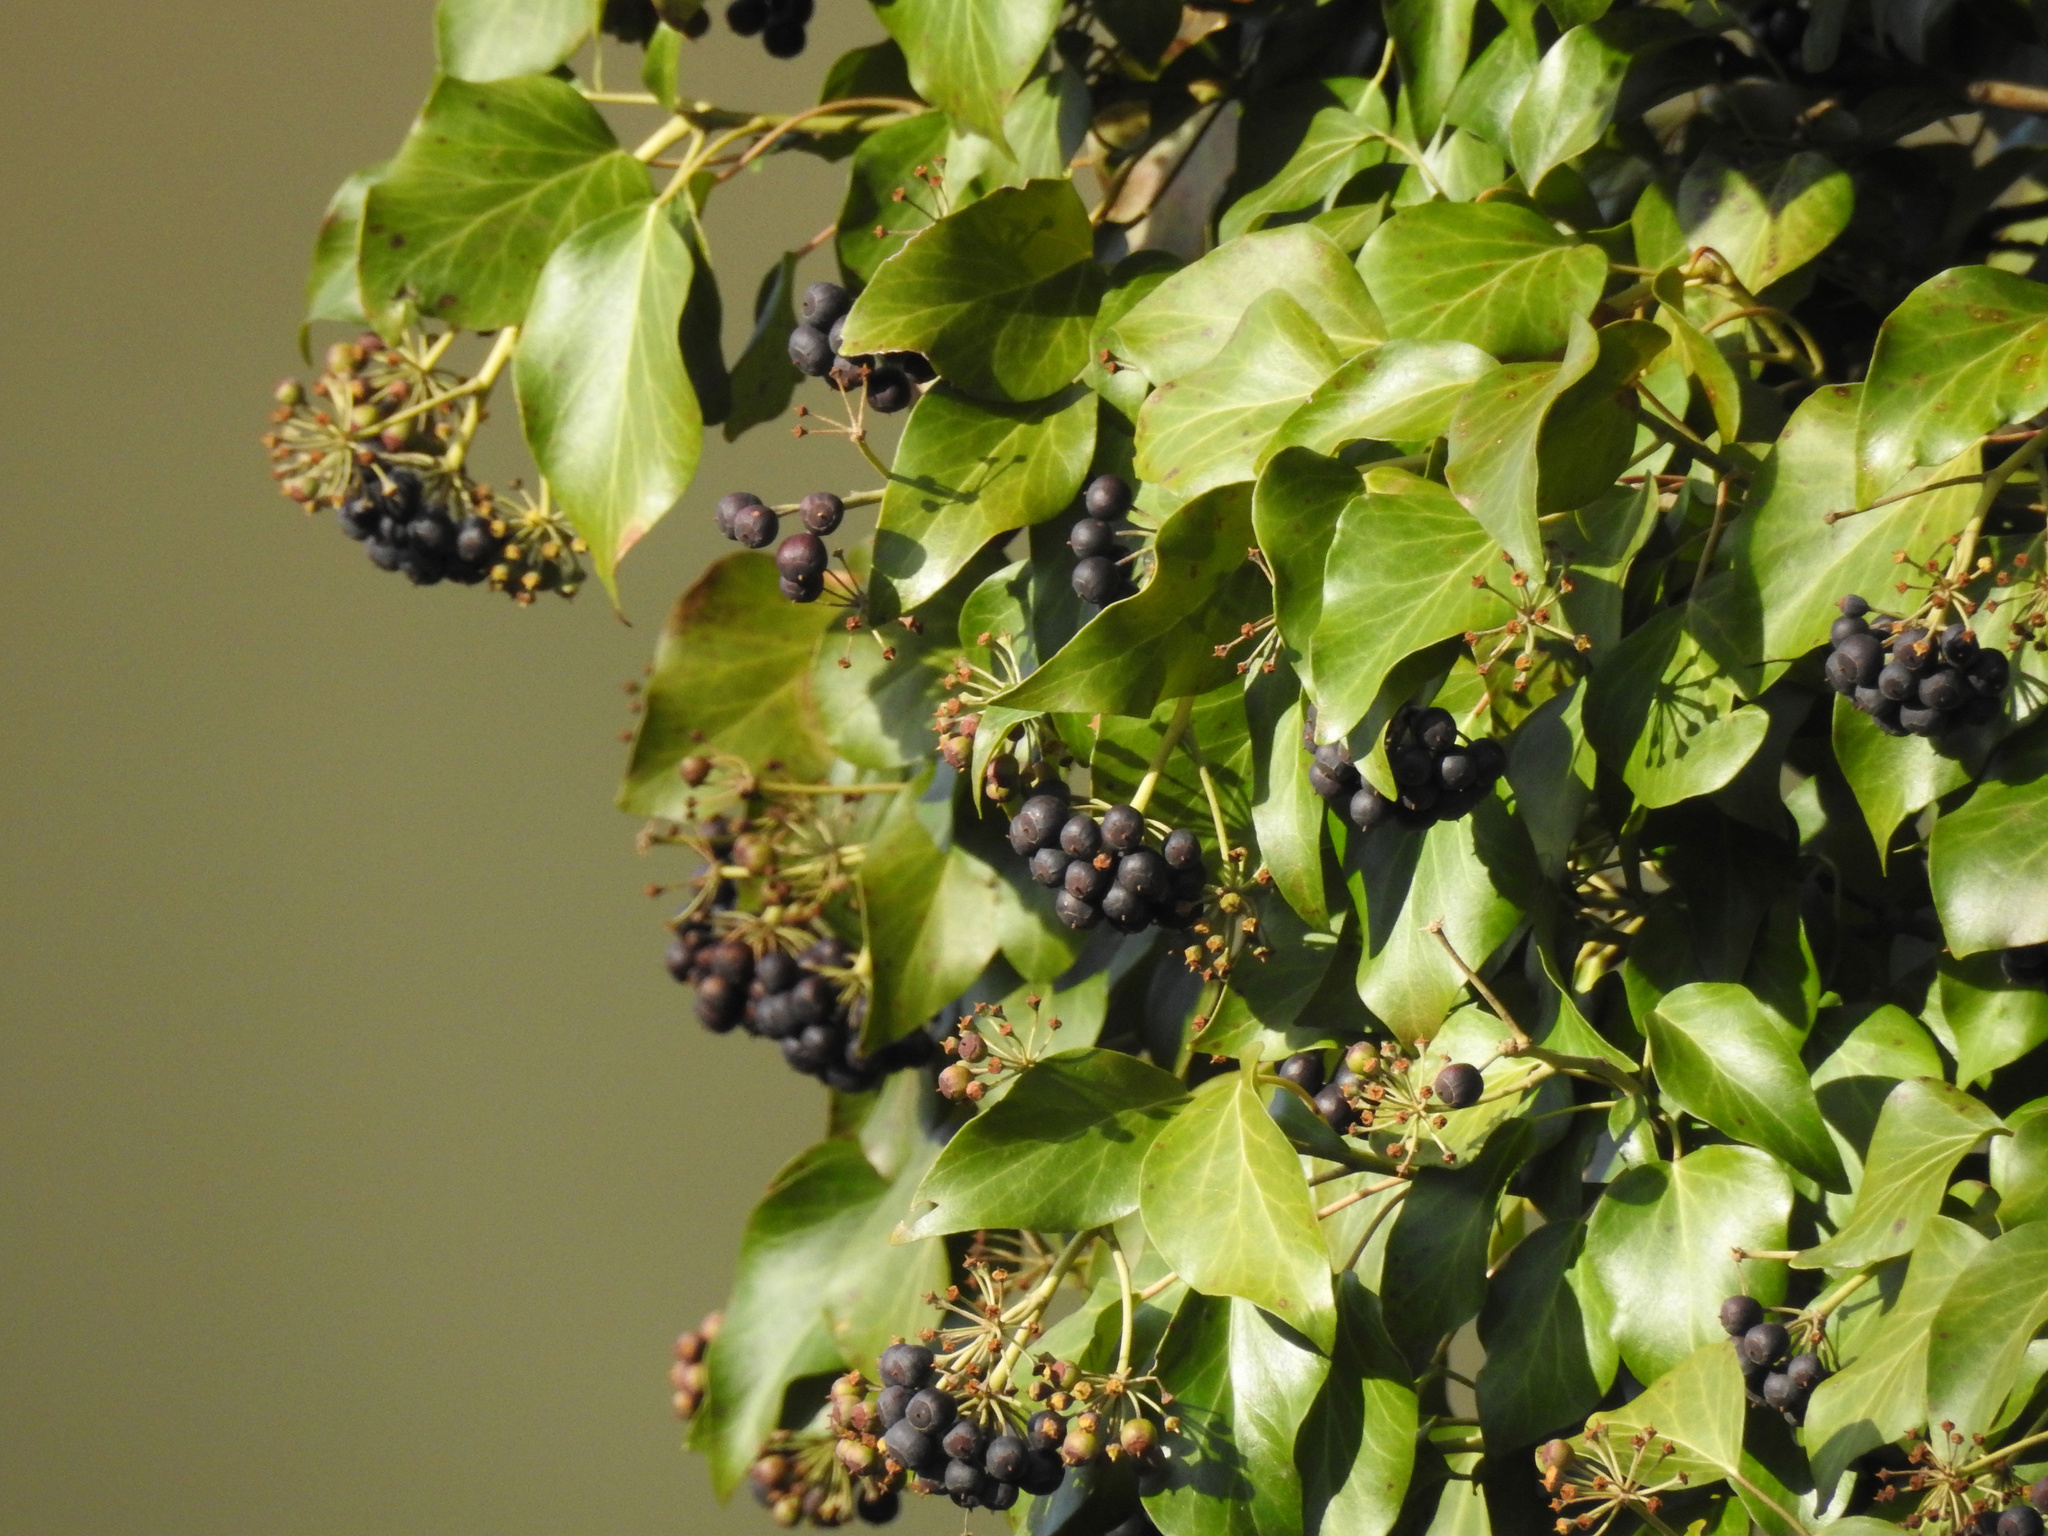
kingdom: Plantae
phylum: Tracheophyta
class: Magnoliopsida
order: Apiales
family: Araliaceae
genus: Hedera
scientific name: Hedera helix
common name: Ivy
